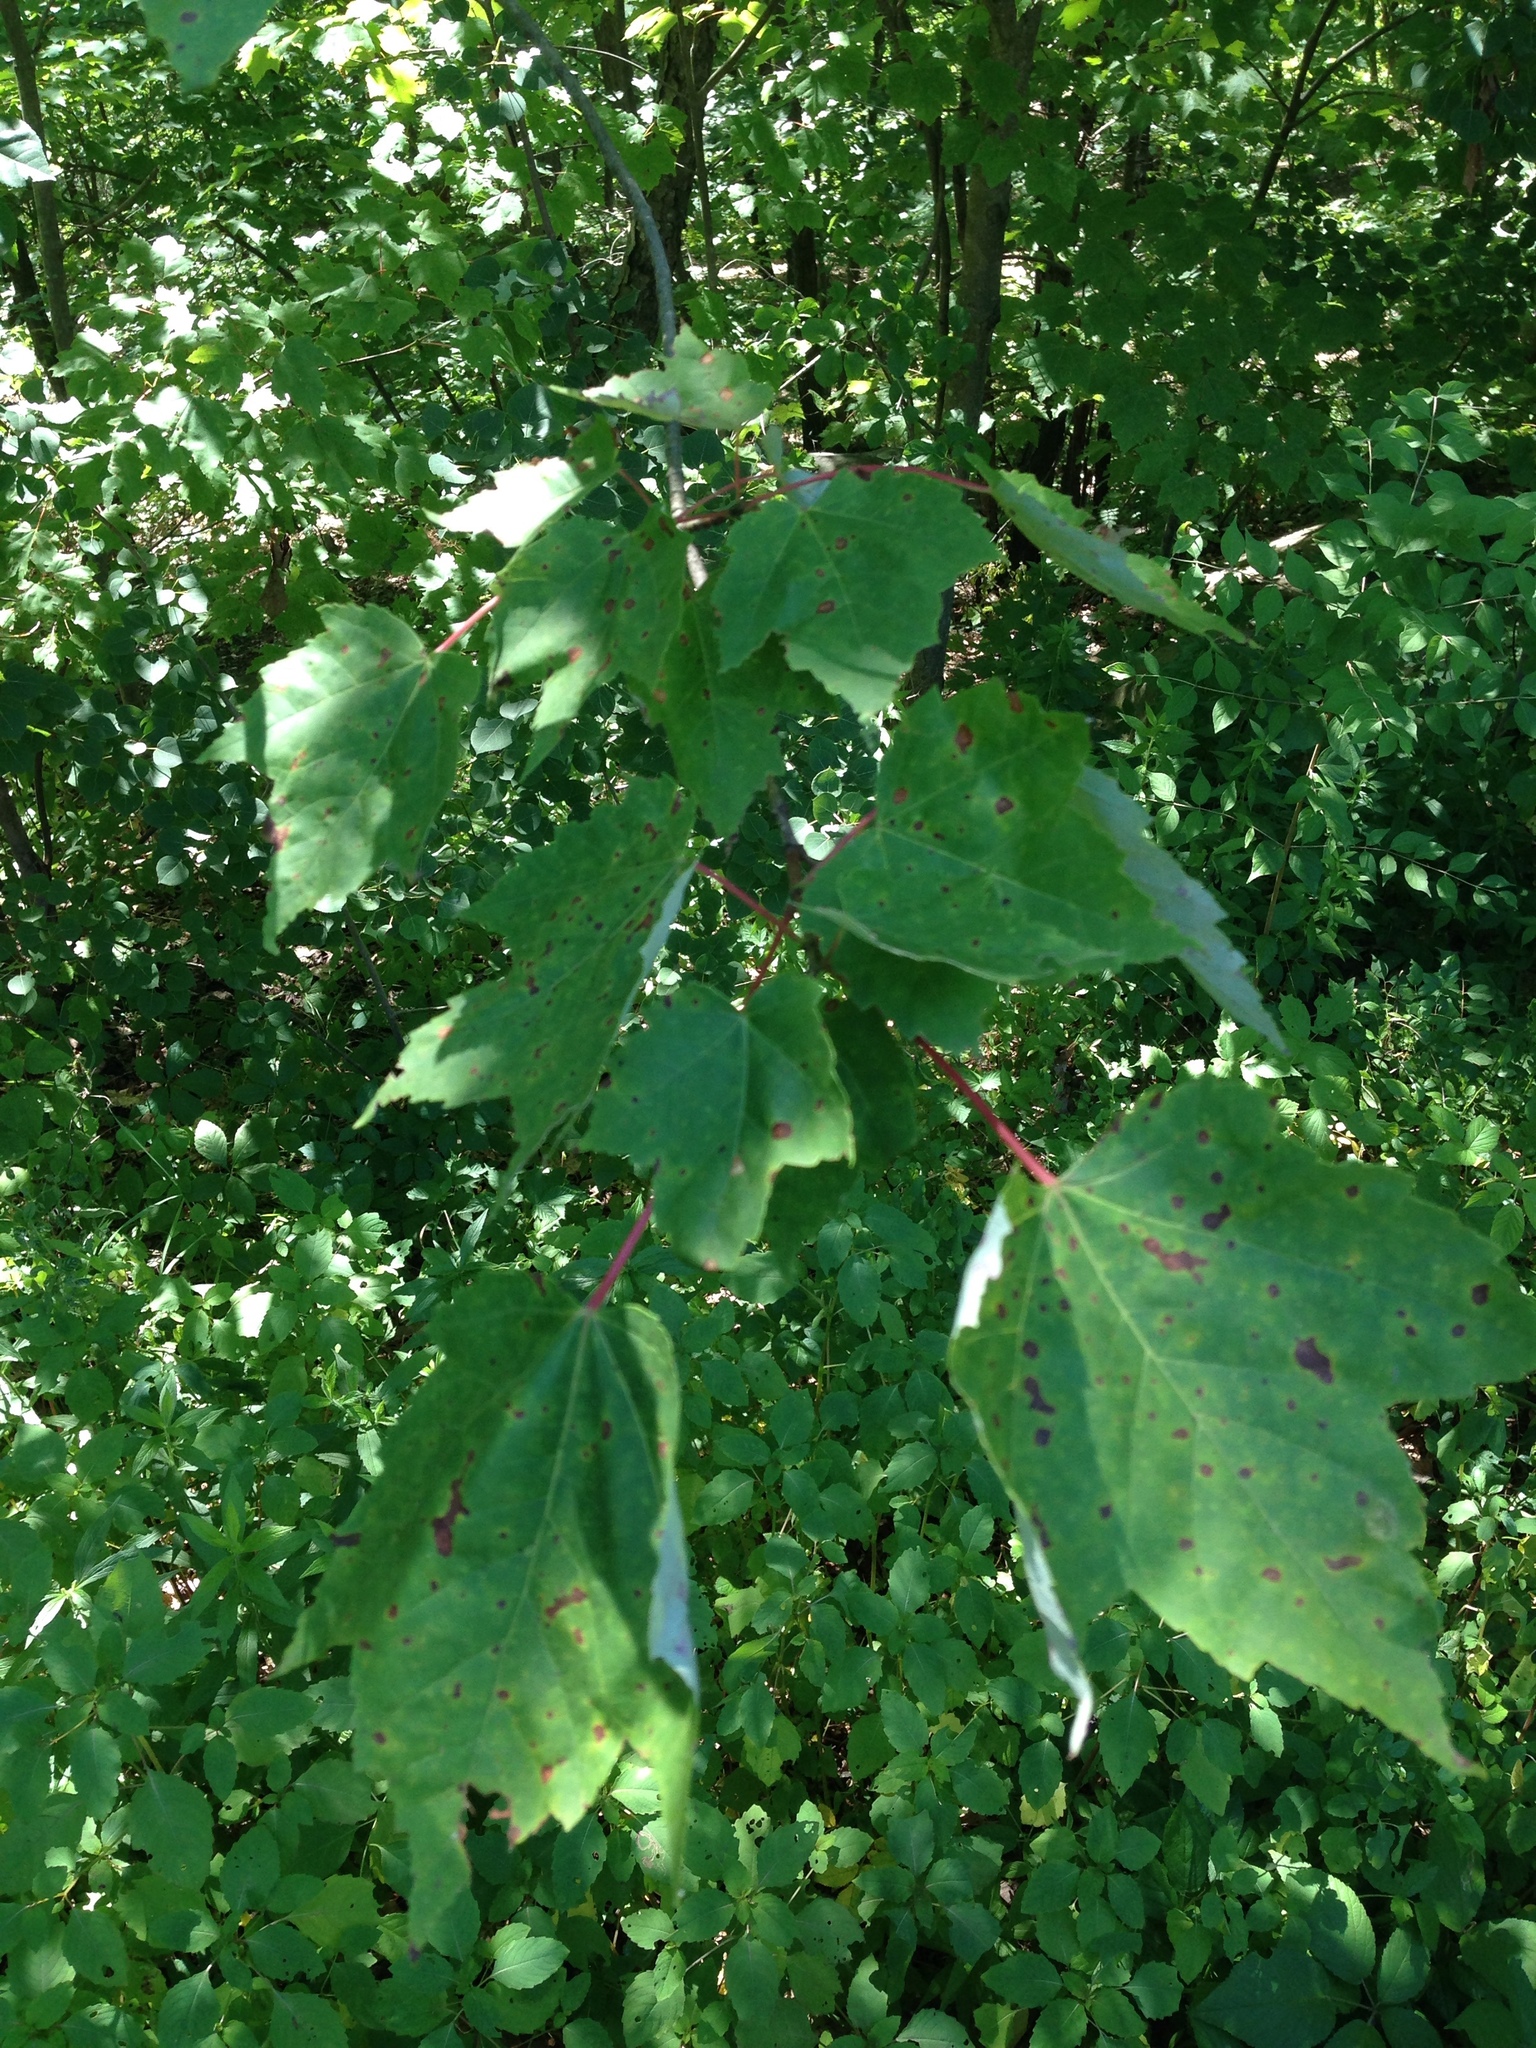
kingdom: Plantae
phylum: Tracheophyta
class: Magnoliopsida
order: Sapindales
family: Sapindaceae
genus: Acer
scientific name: Acer rubrum
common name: Red maple
